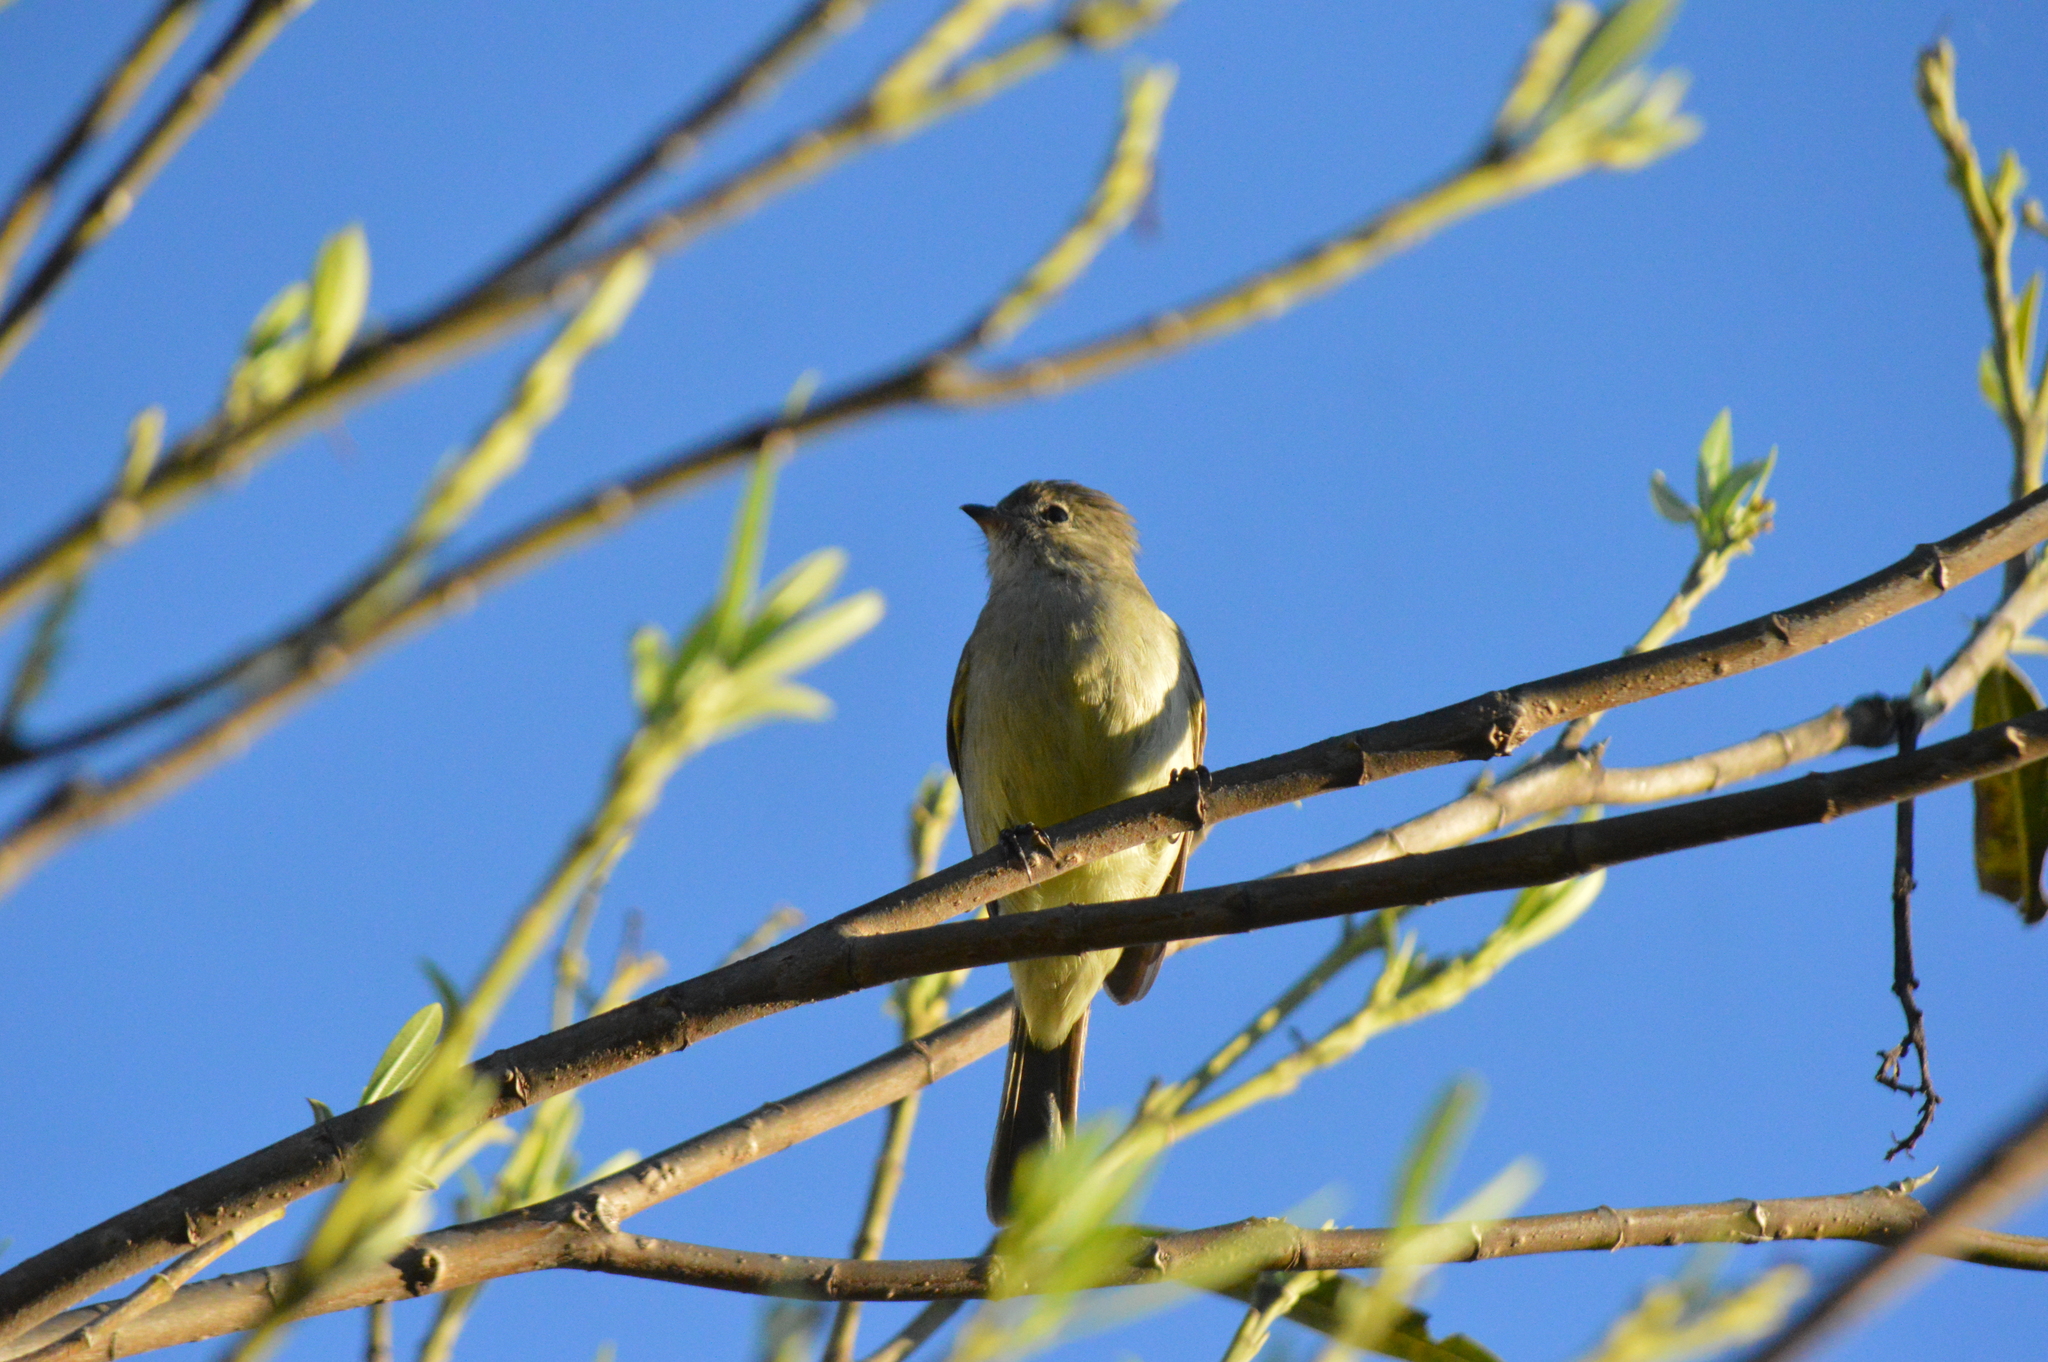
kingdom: Animalia
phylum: Chordata
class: Aves
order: Passeriformes
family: Tyrannidae
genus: Elaenia
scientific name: Elaenia flavogaster
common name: Yellow-bellied elaenia
